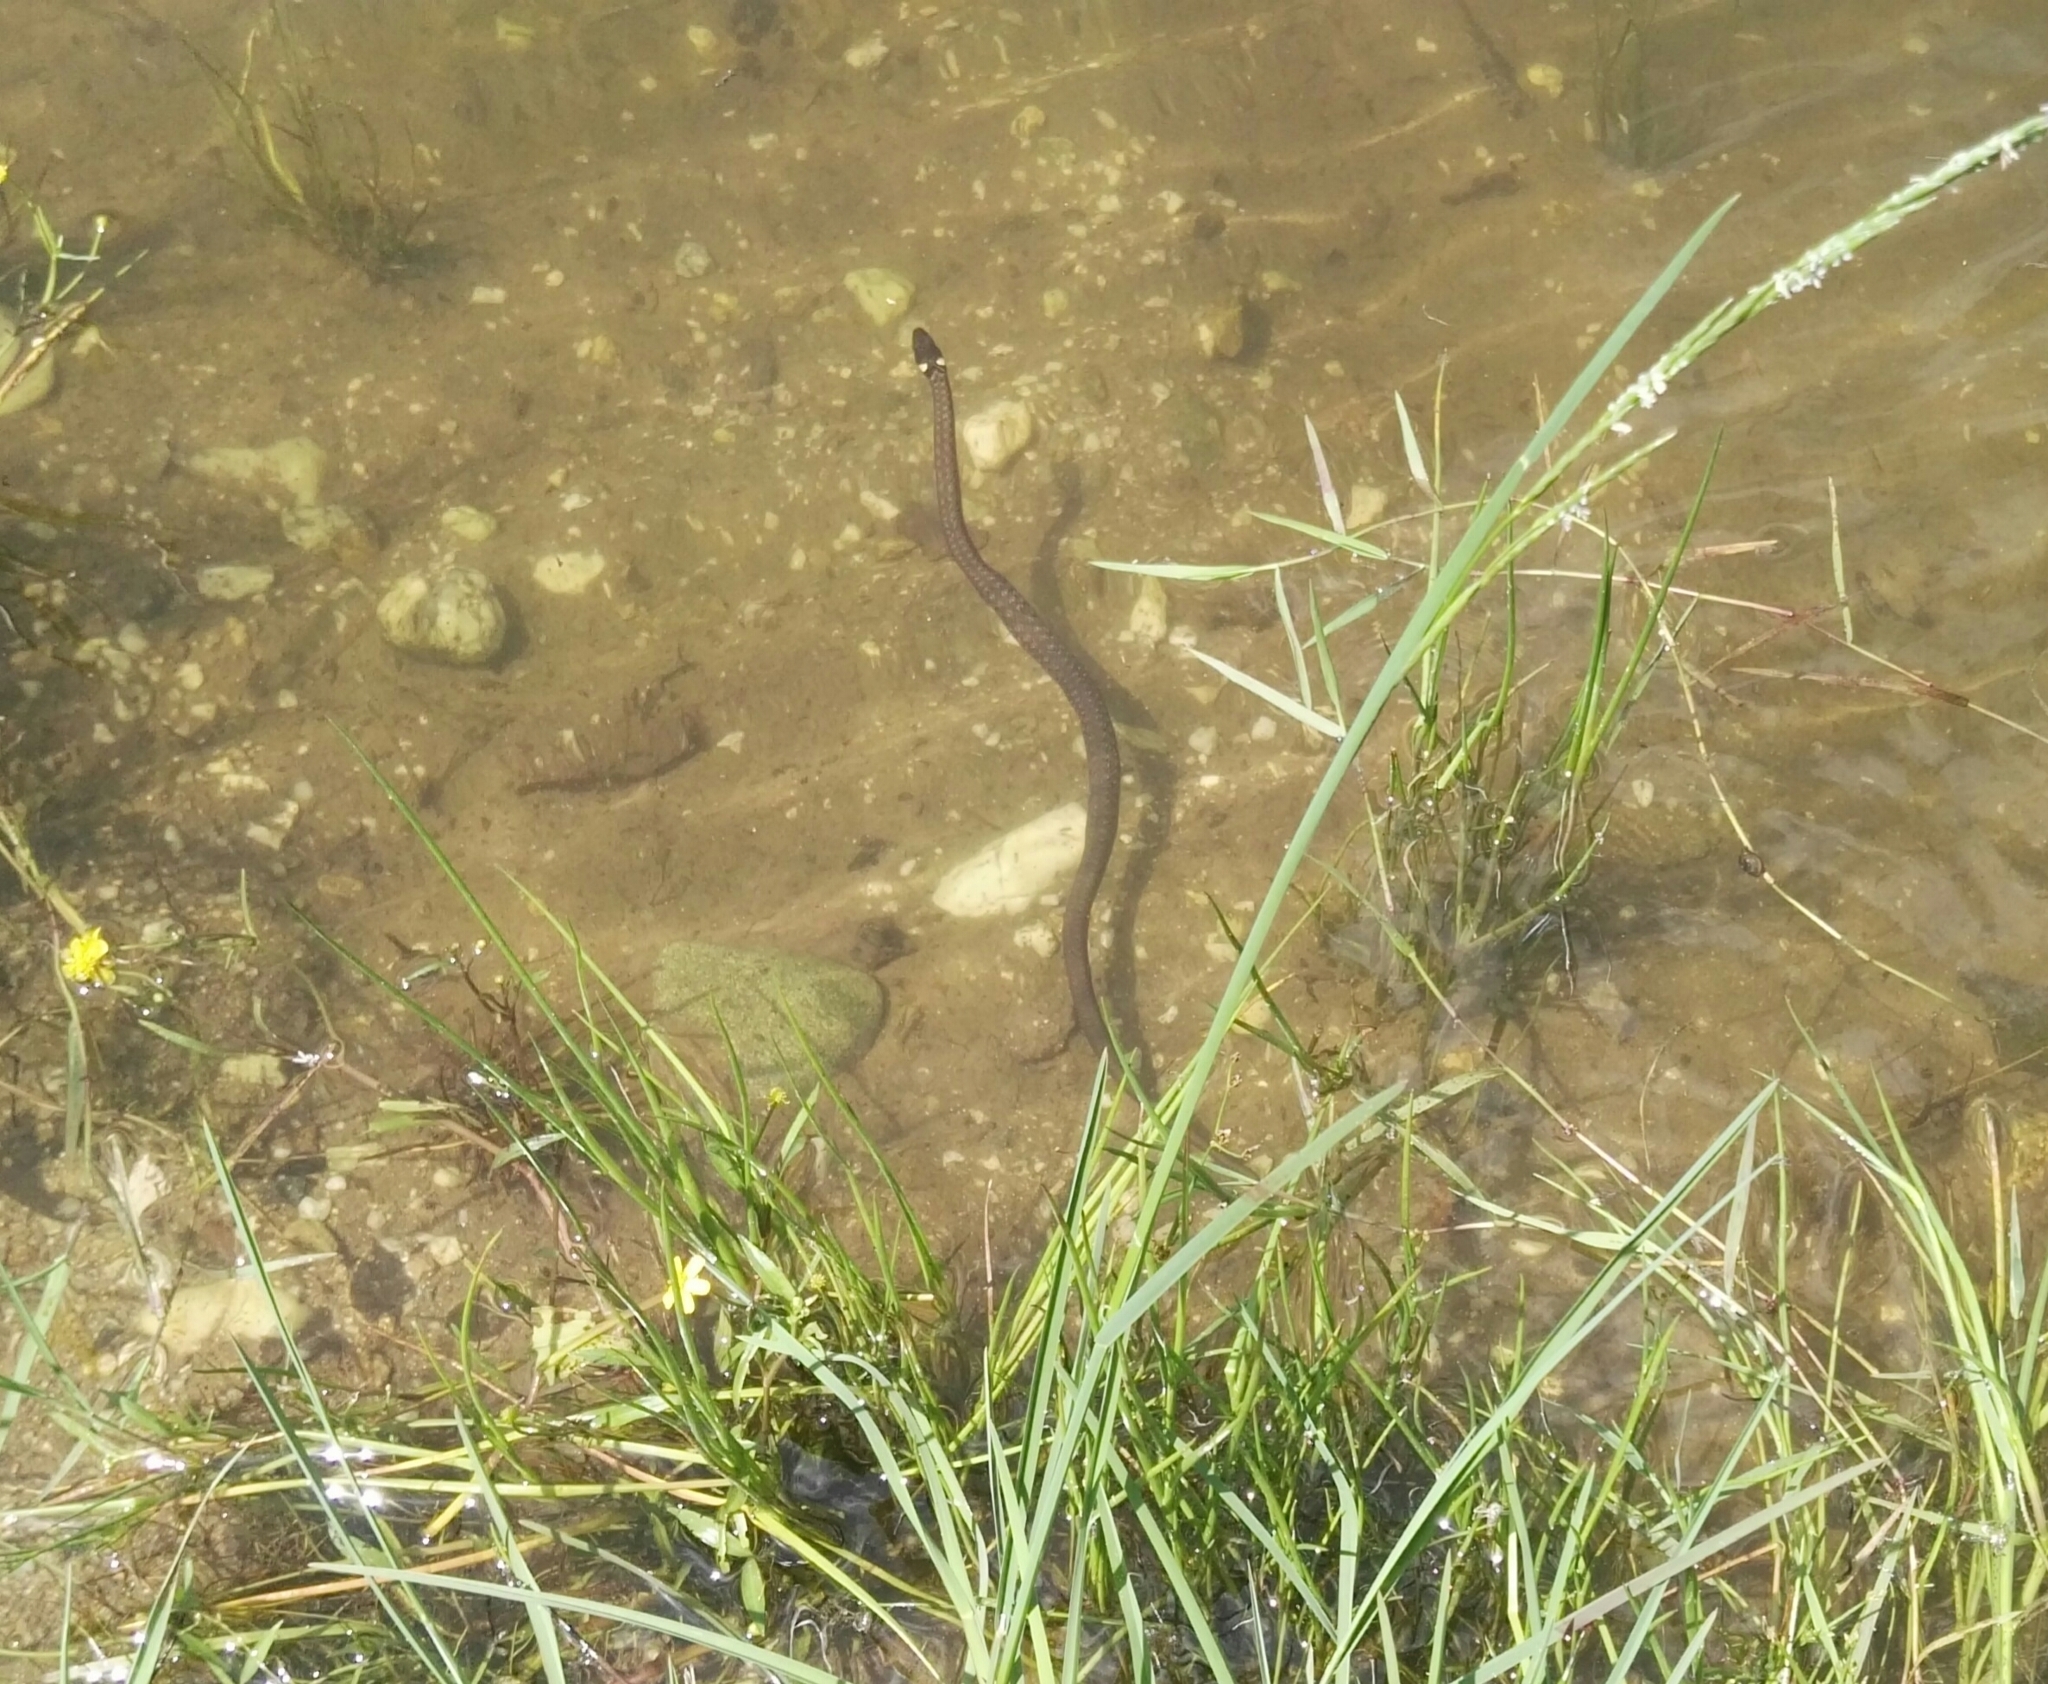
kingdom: Animalia
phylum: Chordata
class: Squamata
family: Colubridae
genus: Natrix
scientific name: Natrix natrix
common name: Grass snake
